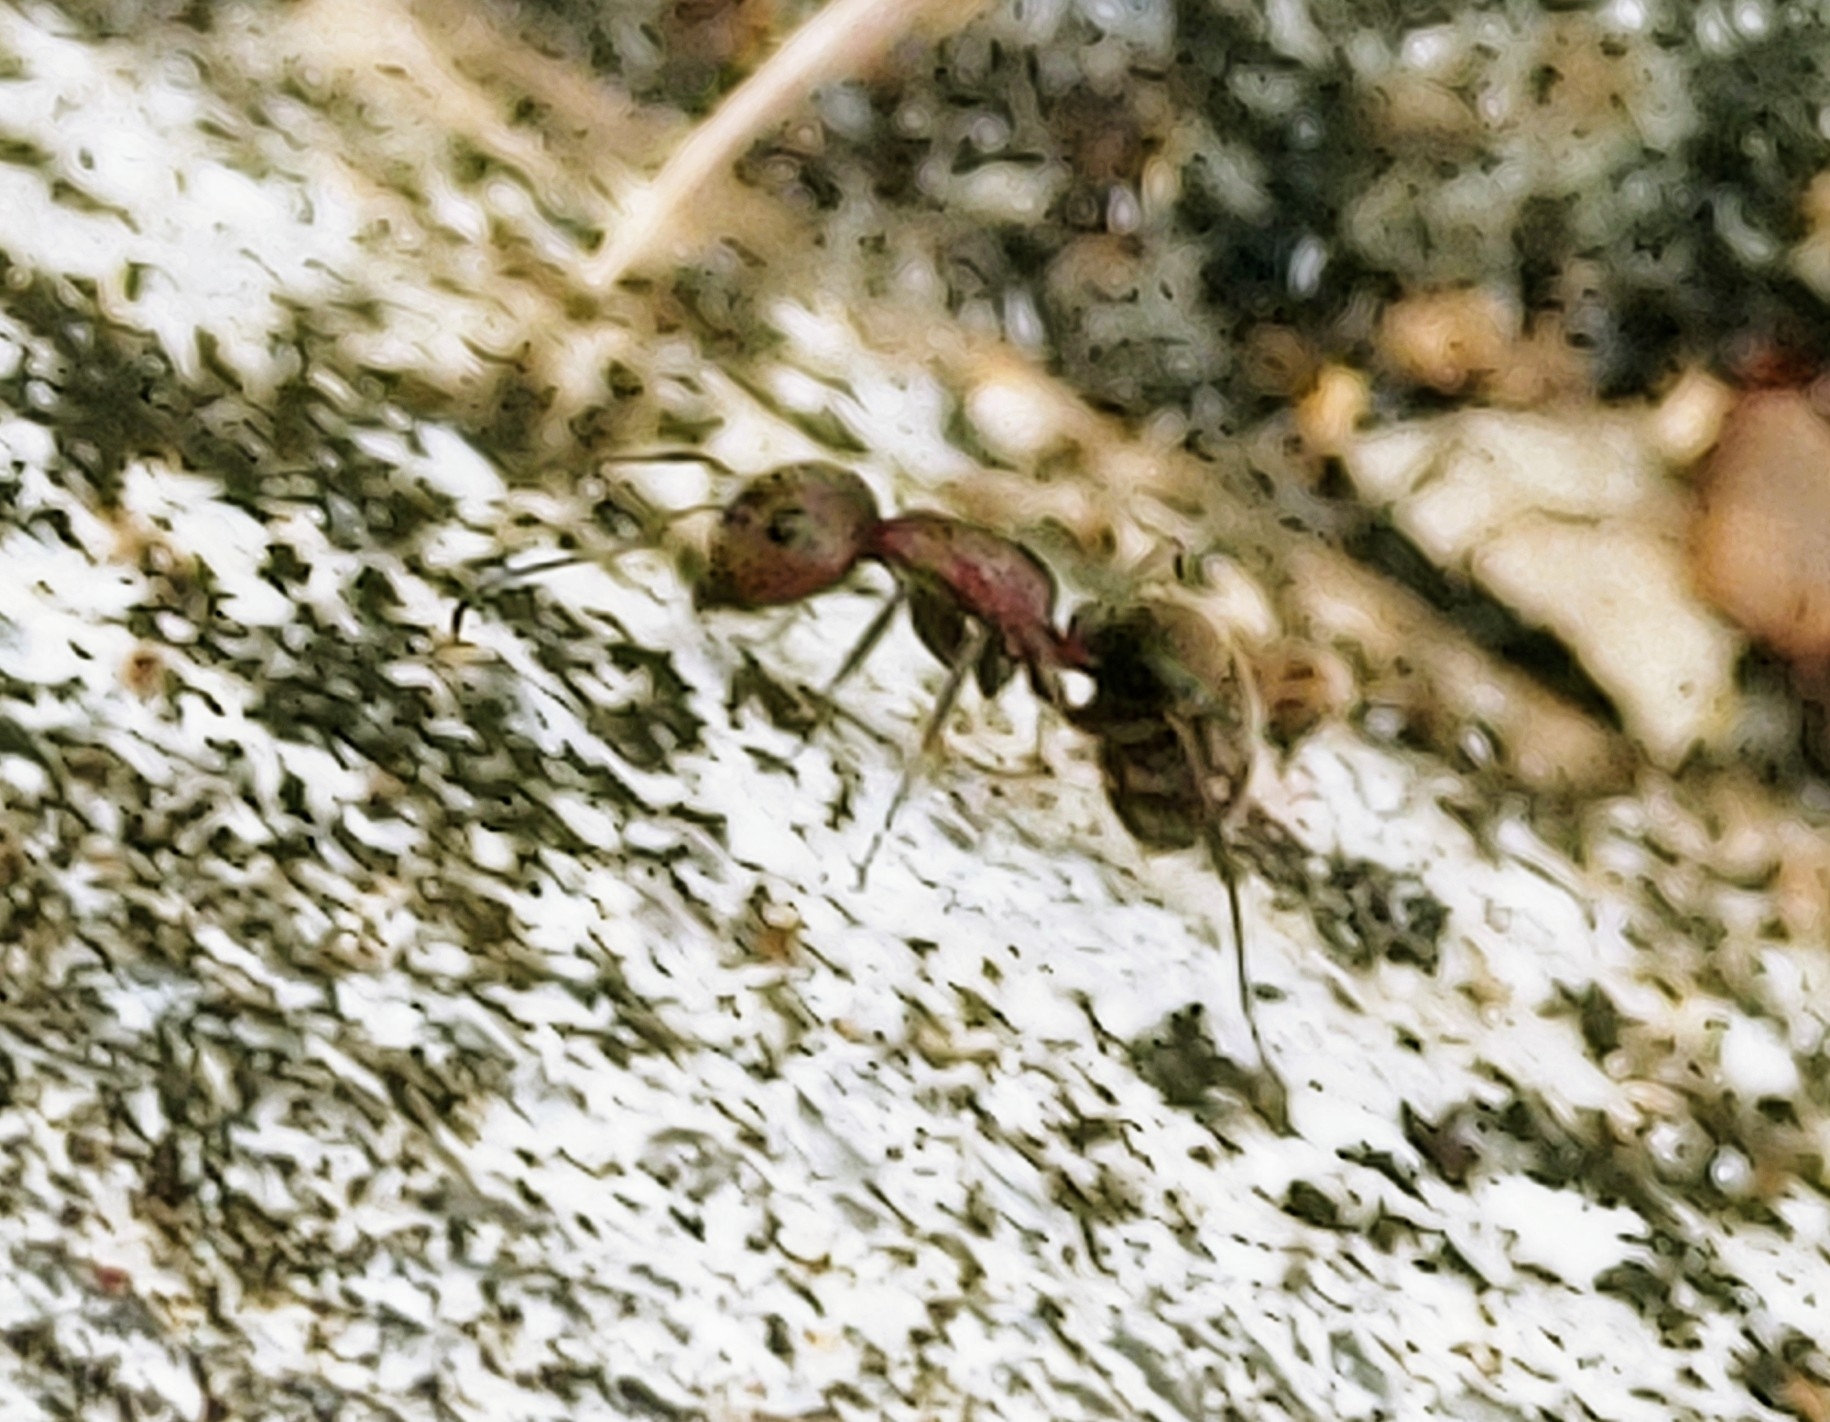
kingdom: Animalia
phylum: Arthropoda
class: Insecta
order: Hymenoptera
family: Formicidae
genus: Camponotus
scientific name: Camponotus planatus
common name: Compact carpenter ant
